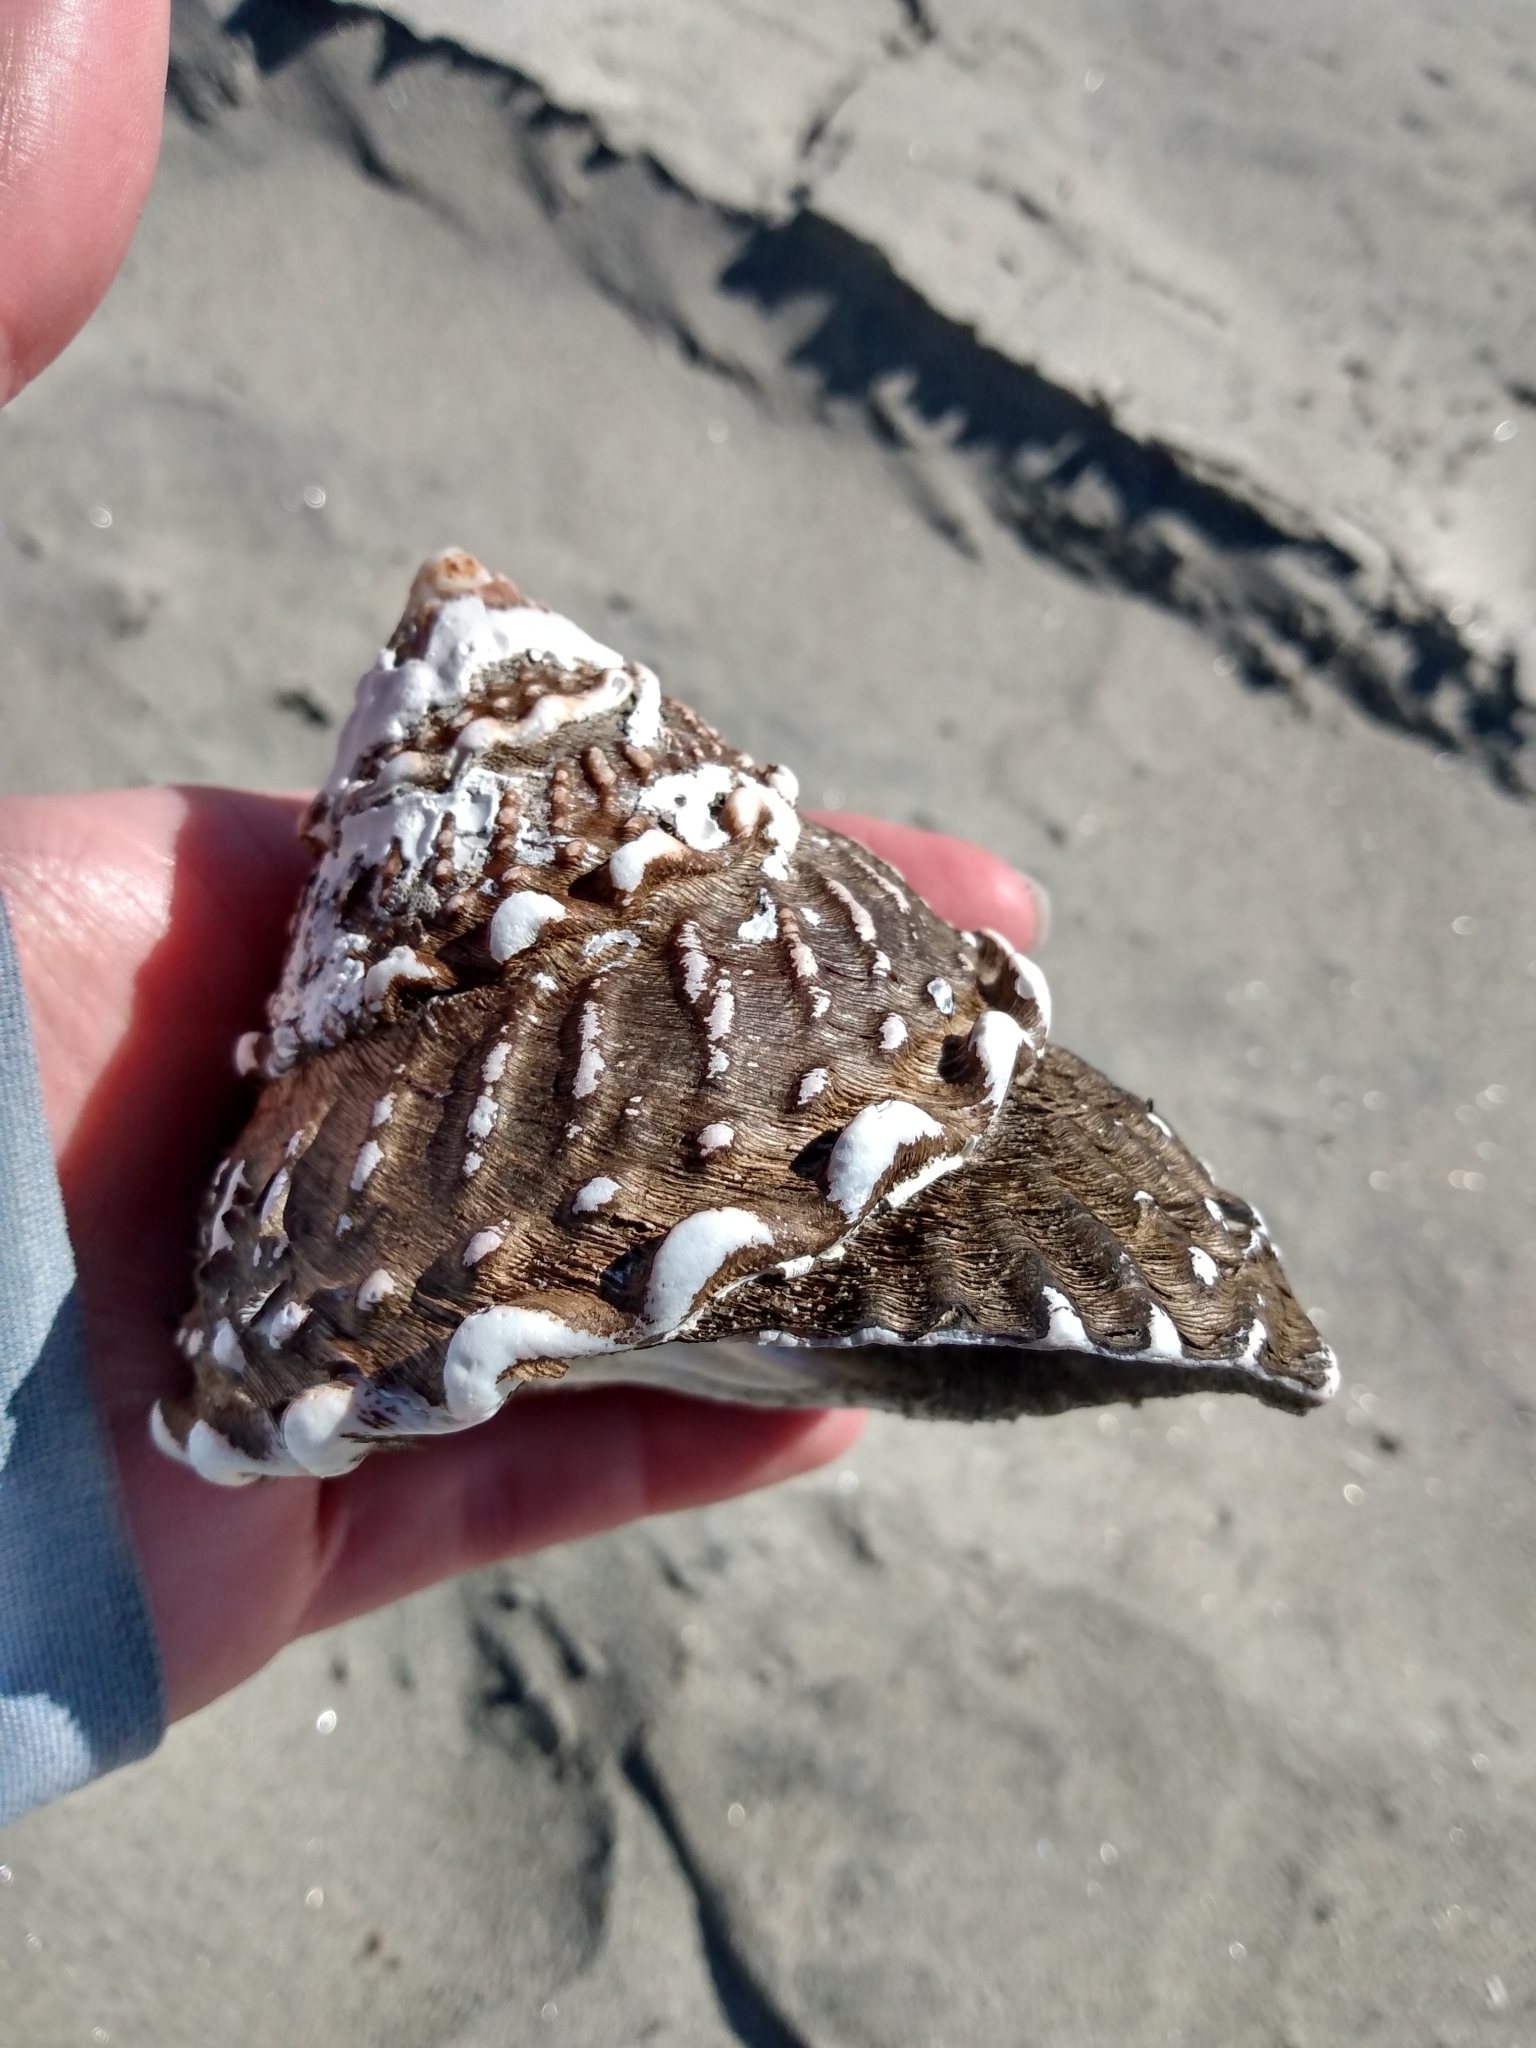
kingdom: Animalia
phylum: Mollusca
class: Gastropoda
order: Trochida
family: Turbinidae
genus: Megastraea
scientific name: Megastraea undosa
